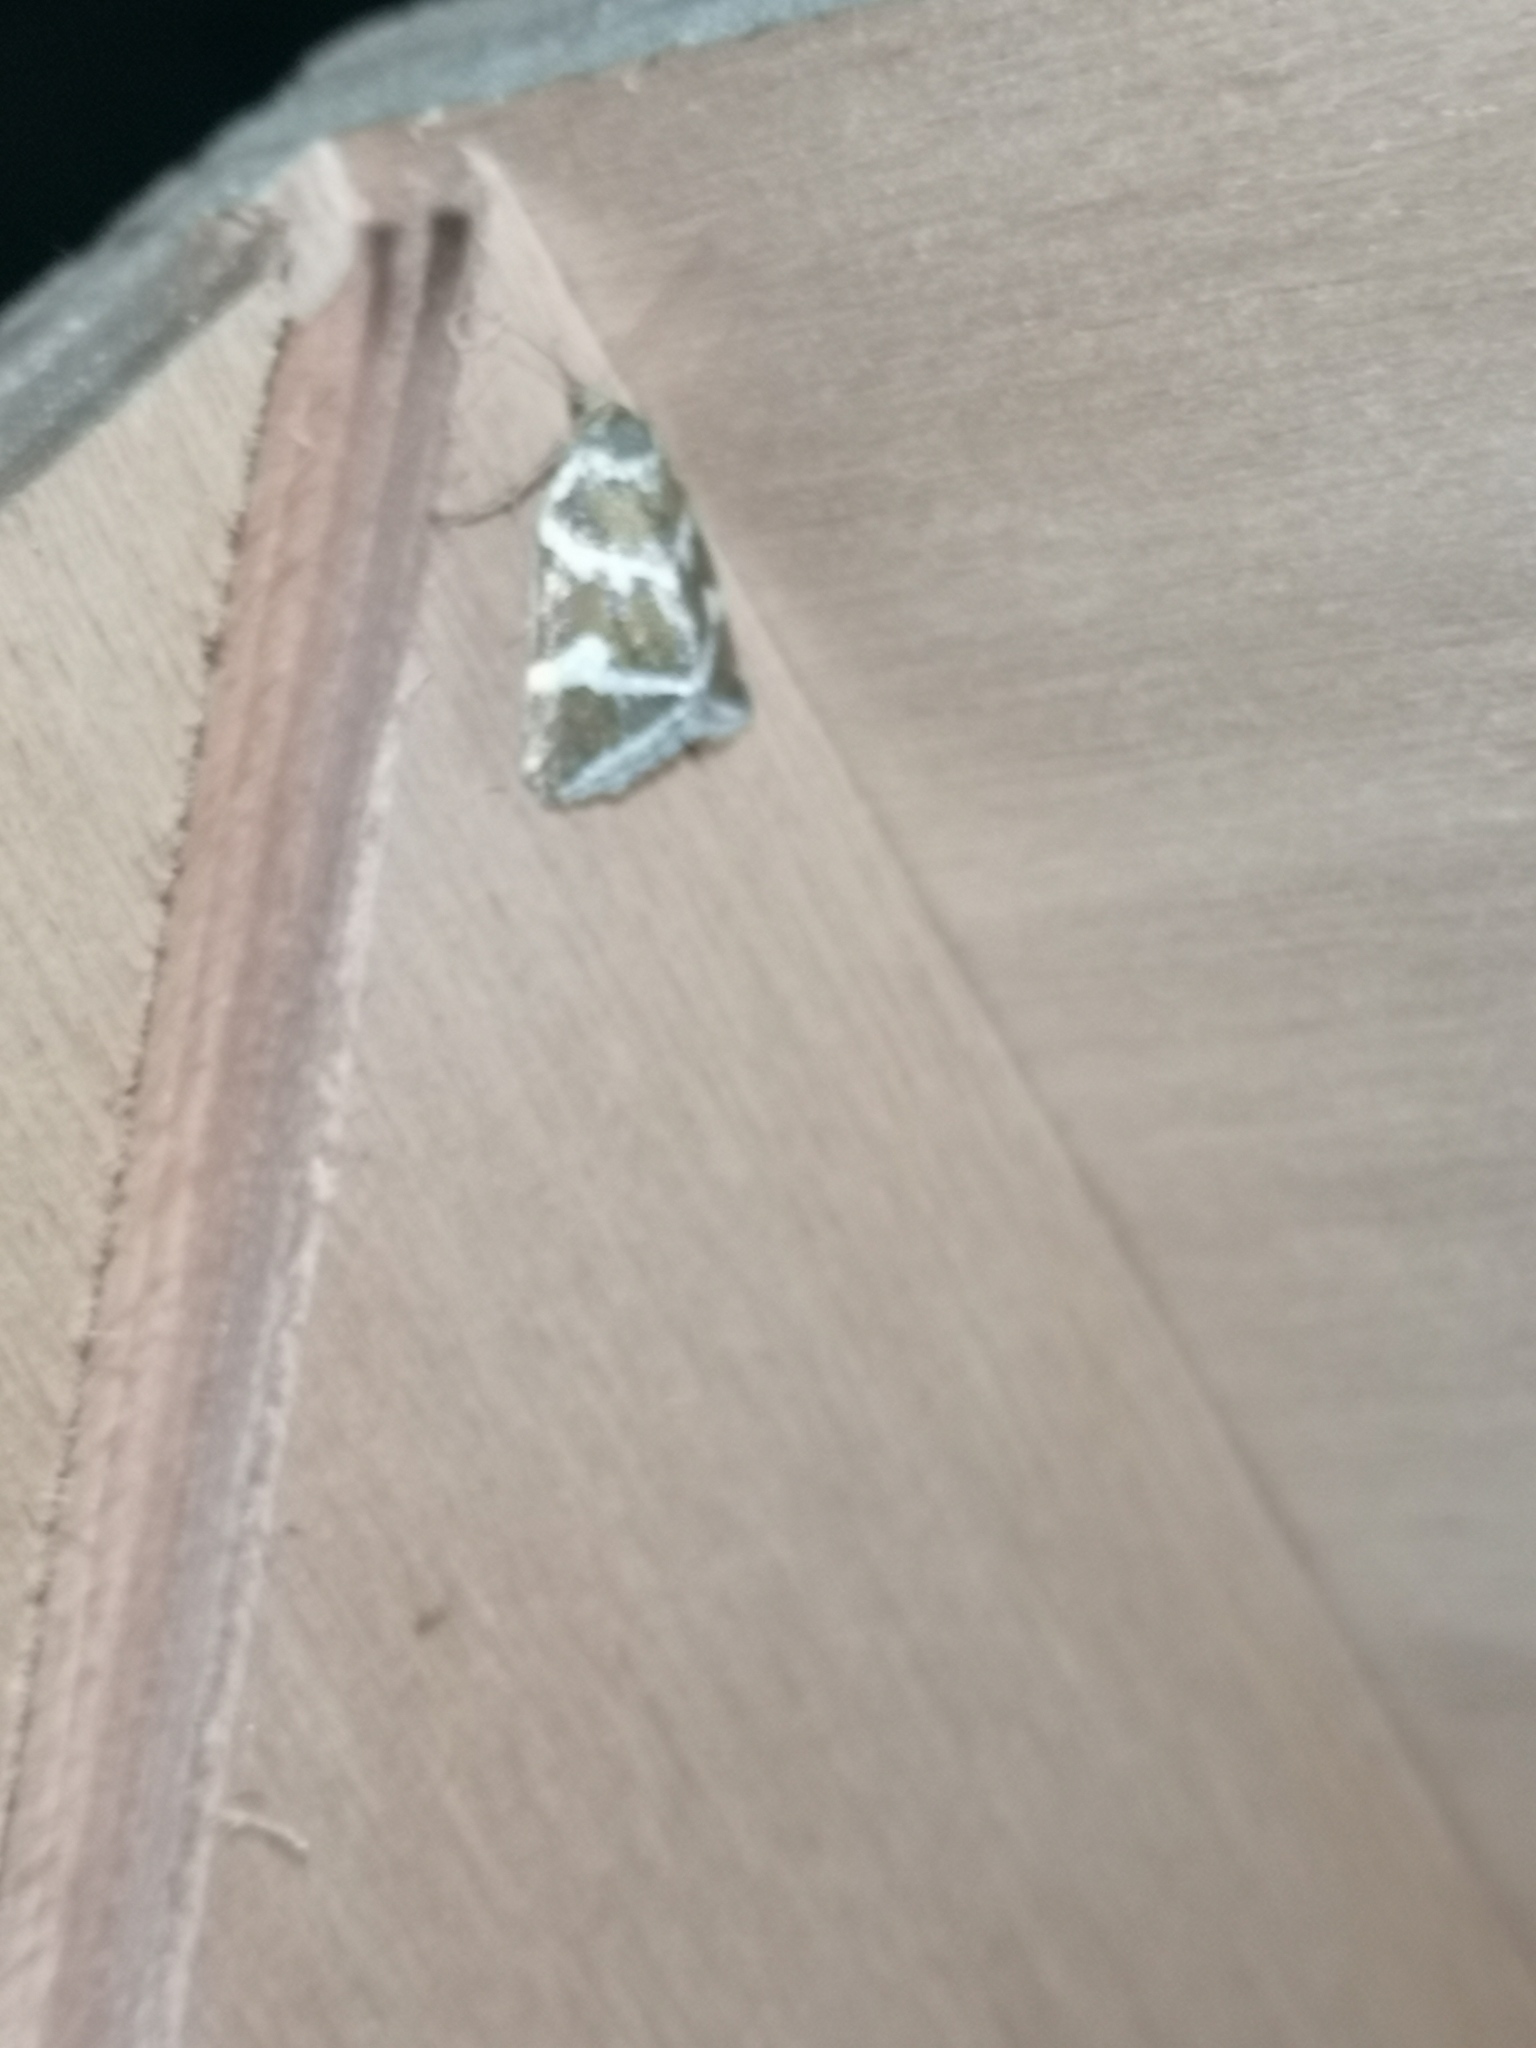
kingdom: Animalia
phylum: Arthropoda
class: Insecta
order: Lepidoptera
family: Noctuidae
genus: Deltote
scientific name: Deltote bankiana
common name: Silver barred
